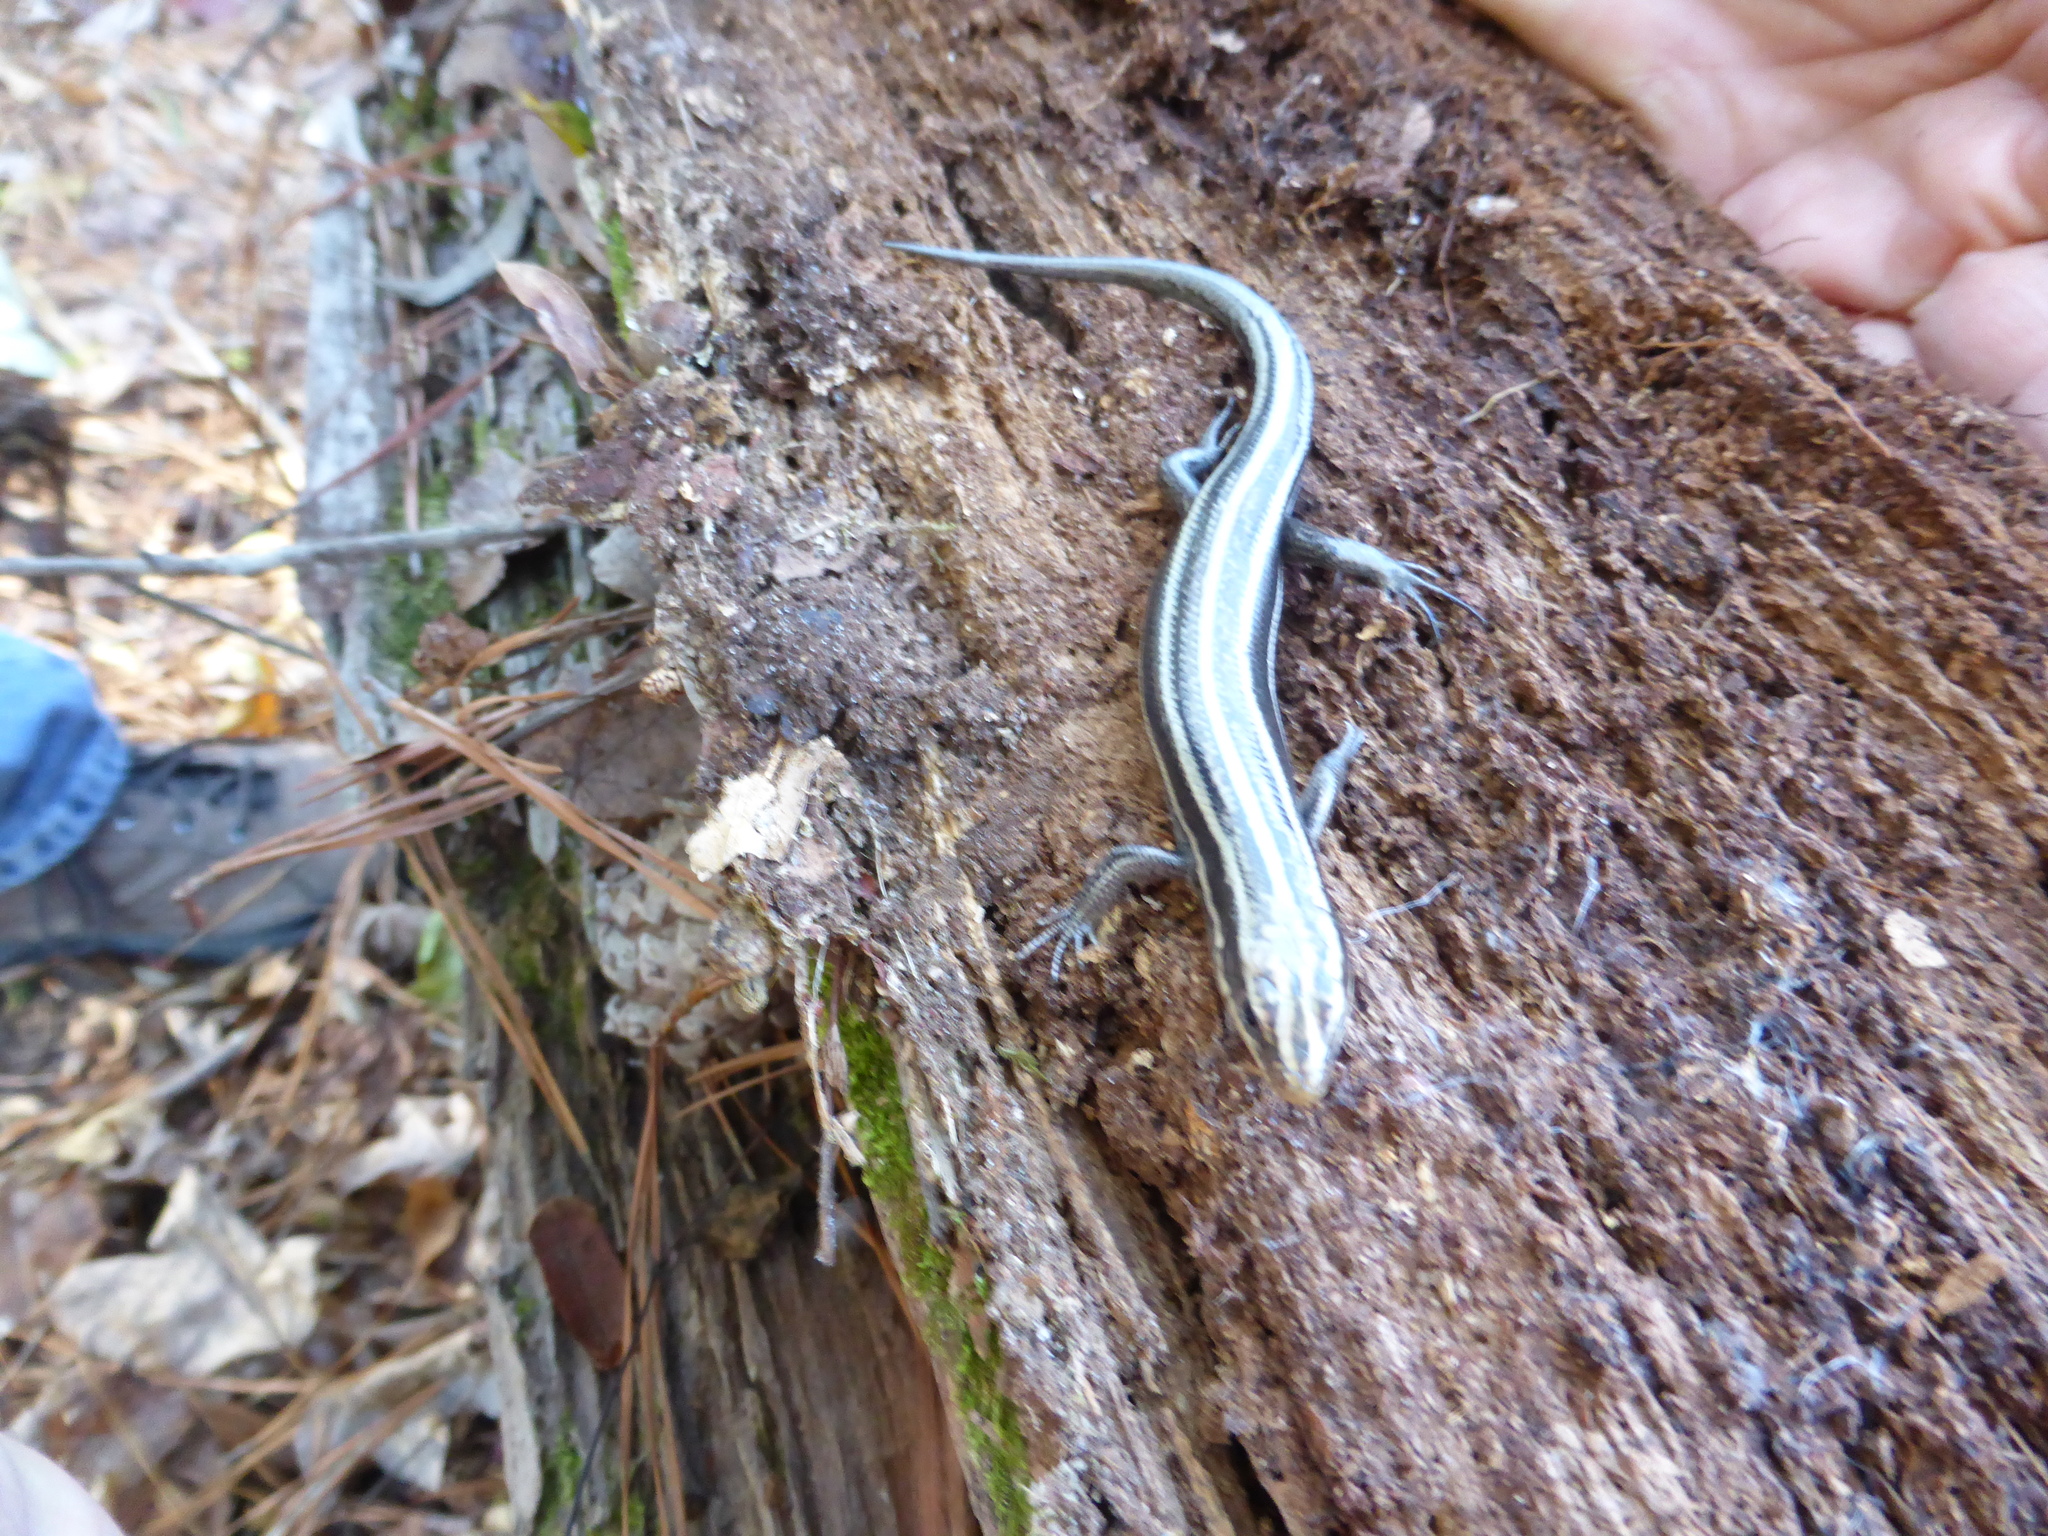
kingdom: Animalia
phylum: Chordata
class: Squamata
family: Scincidae
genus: Plestiodon
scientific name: Plestiodon
